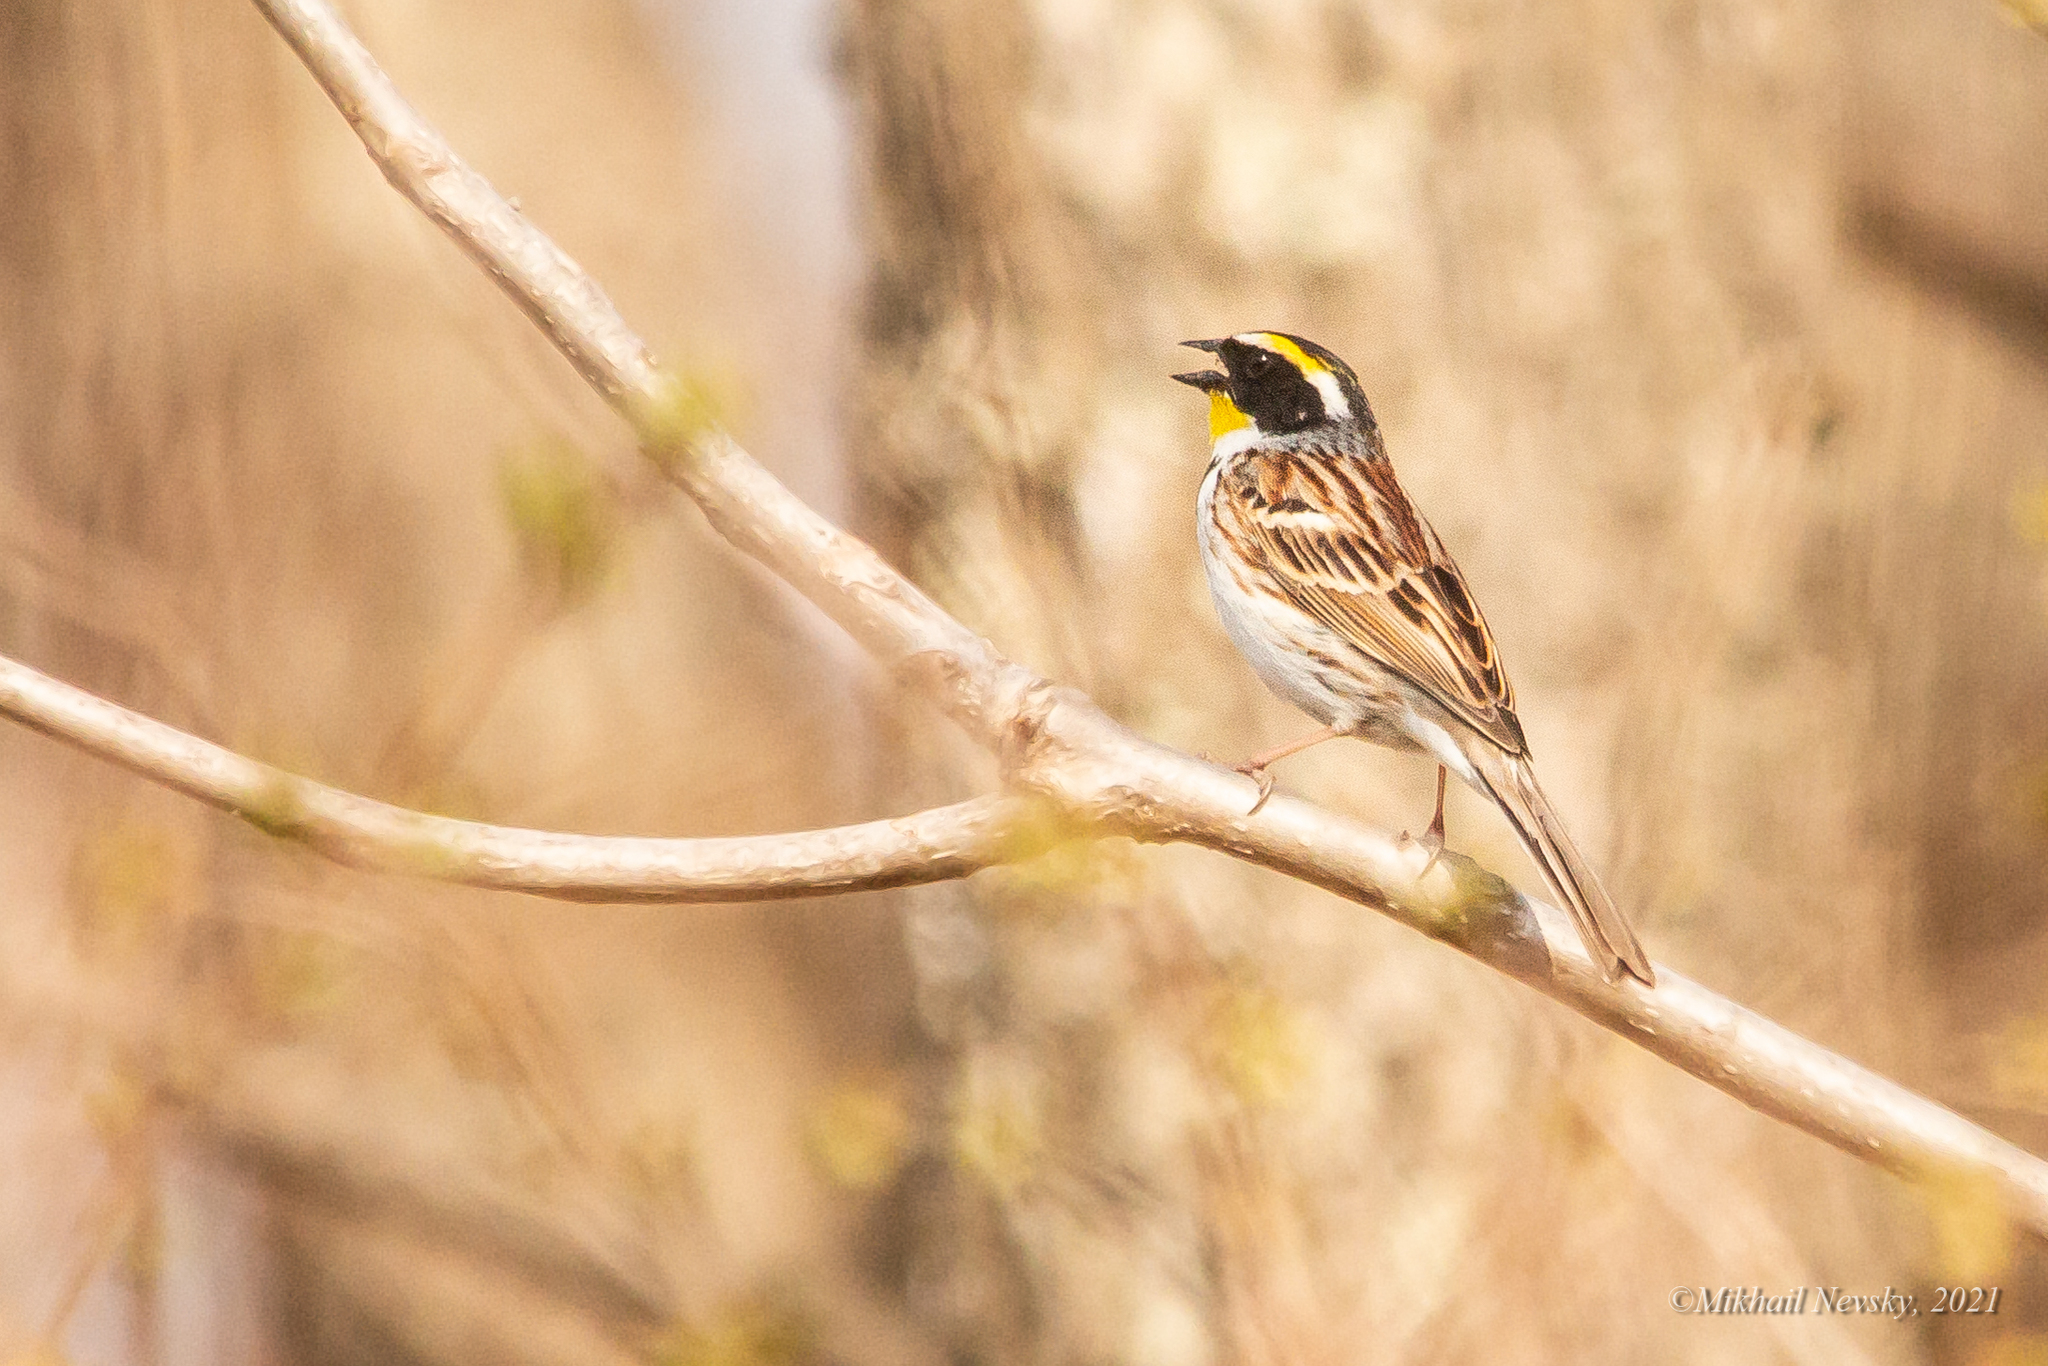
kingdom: Animalia
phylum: Chordata
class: Aves
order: Passeriformes
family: Emberizidae
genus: Emberiza
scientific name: Emberiza elegans
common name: Yellow-throated bunting
